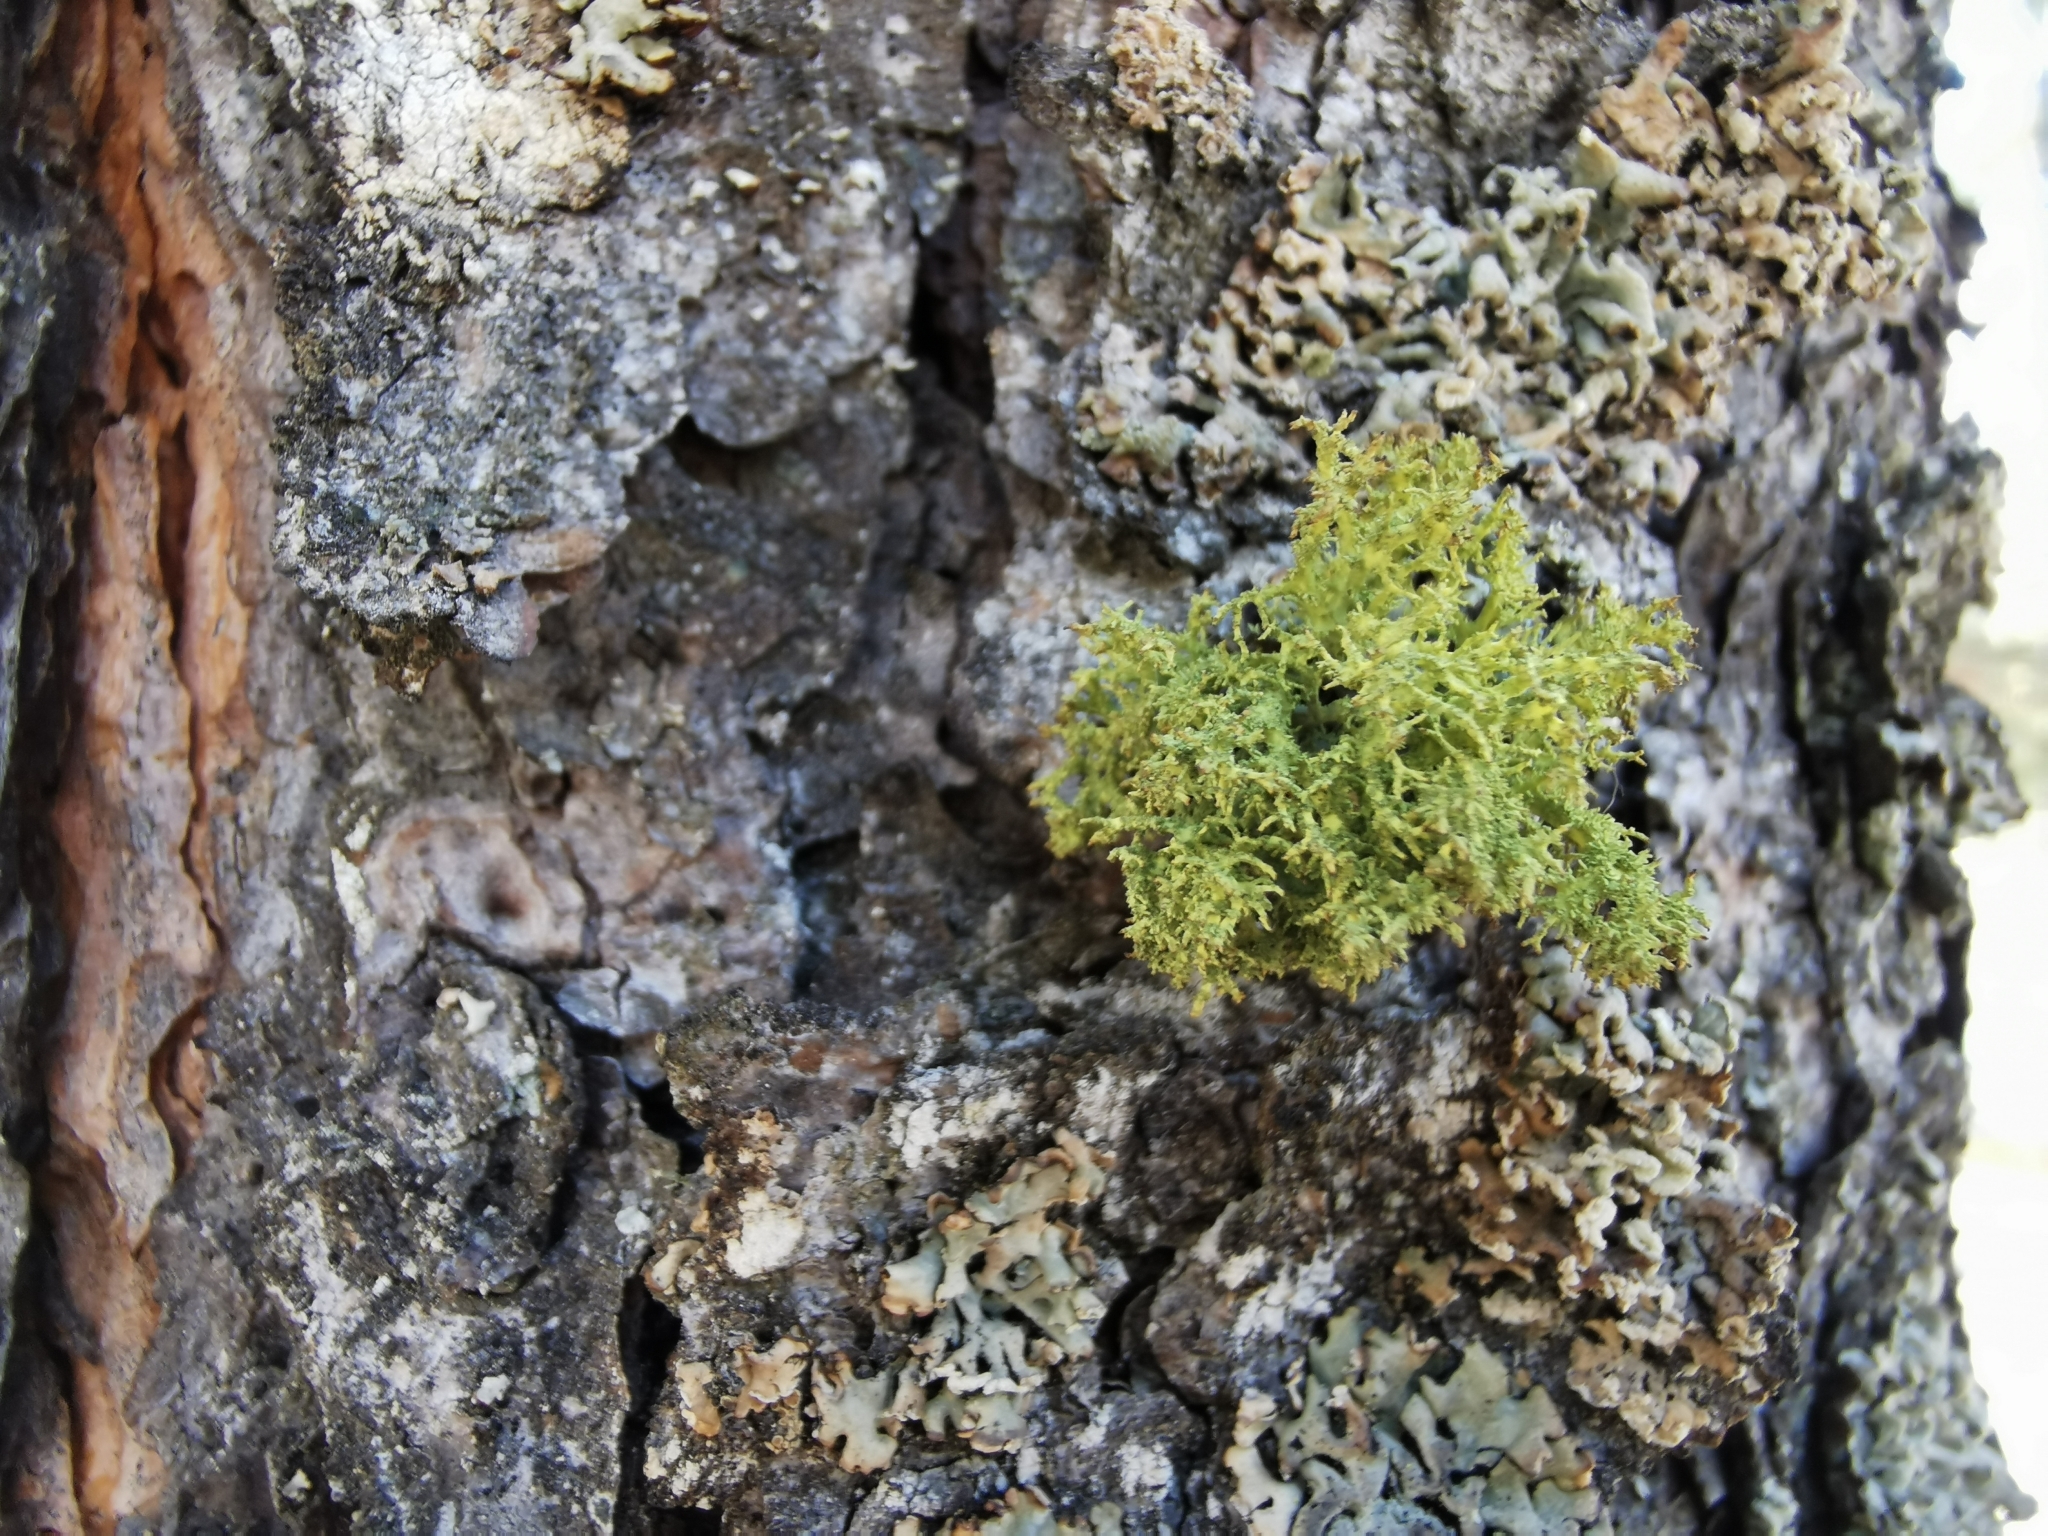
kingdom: Fungi
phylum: Ascomycota
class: Lecanoromycetes
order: Lecanorales
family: Parmeliaceae
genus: Letharia
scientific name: Letharia vulpina
